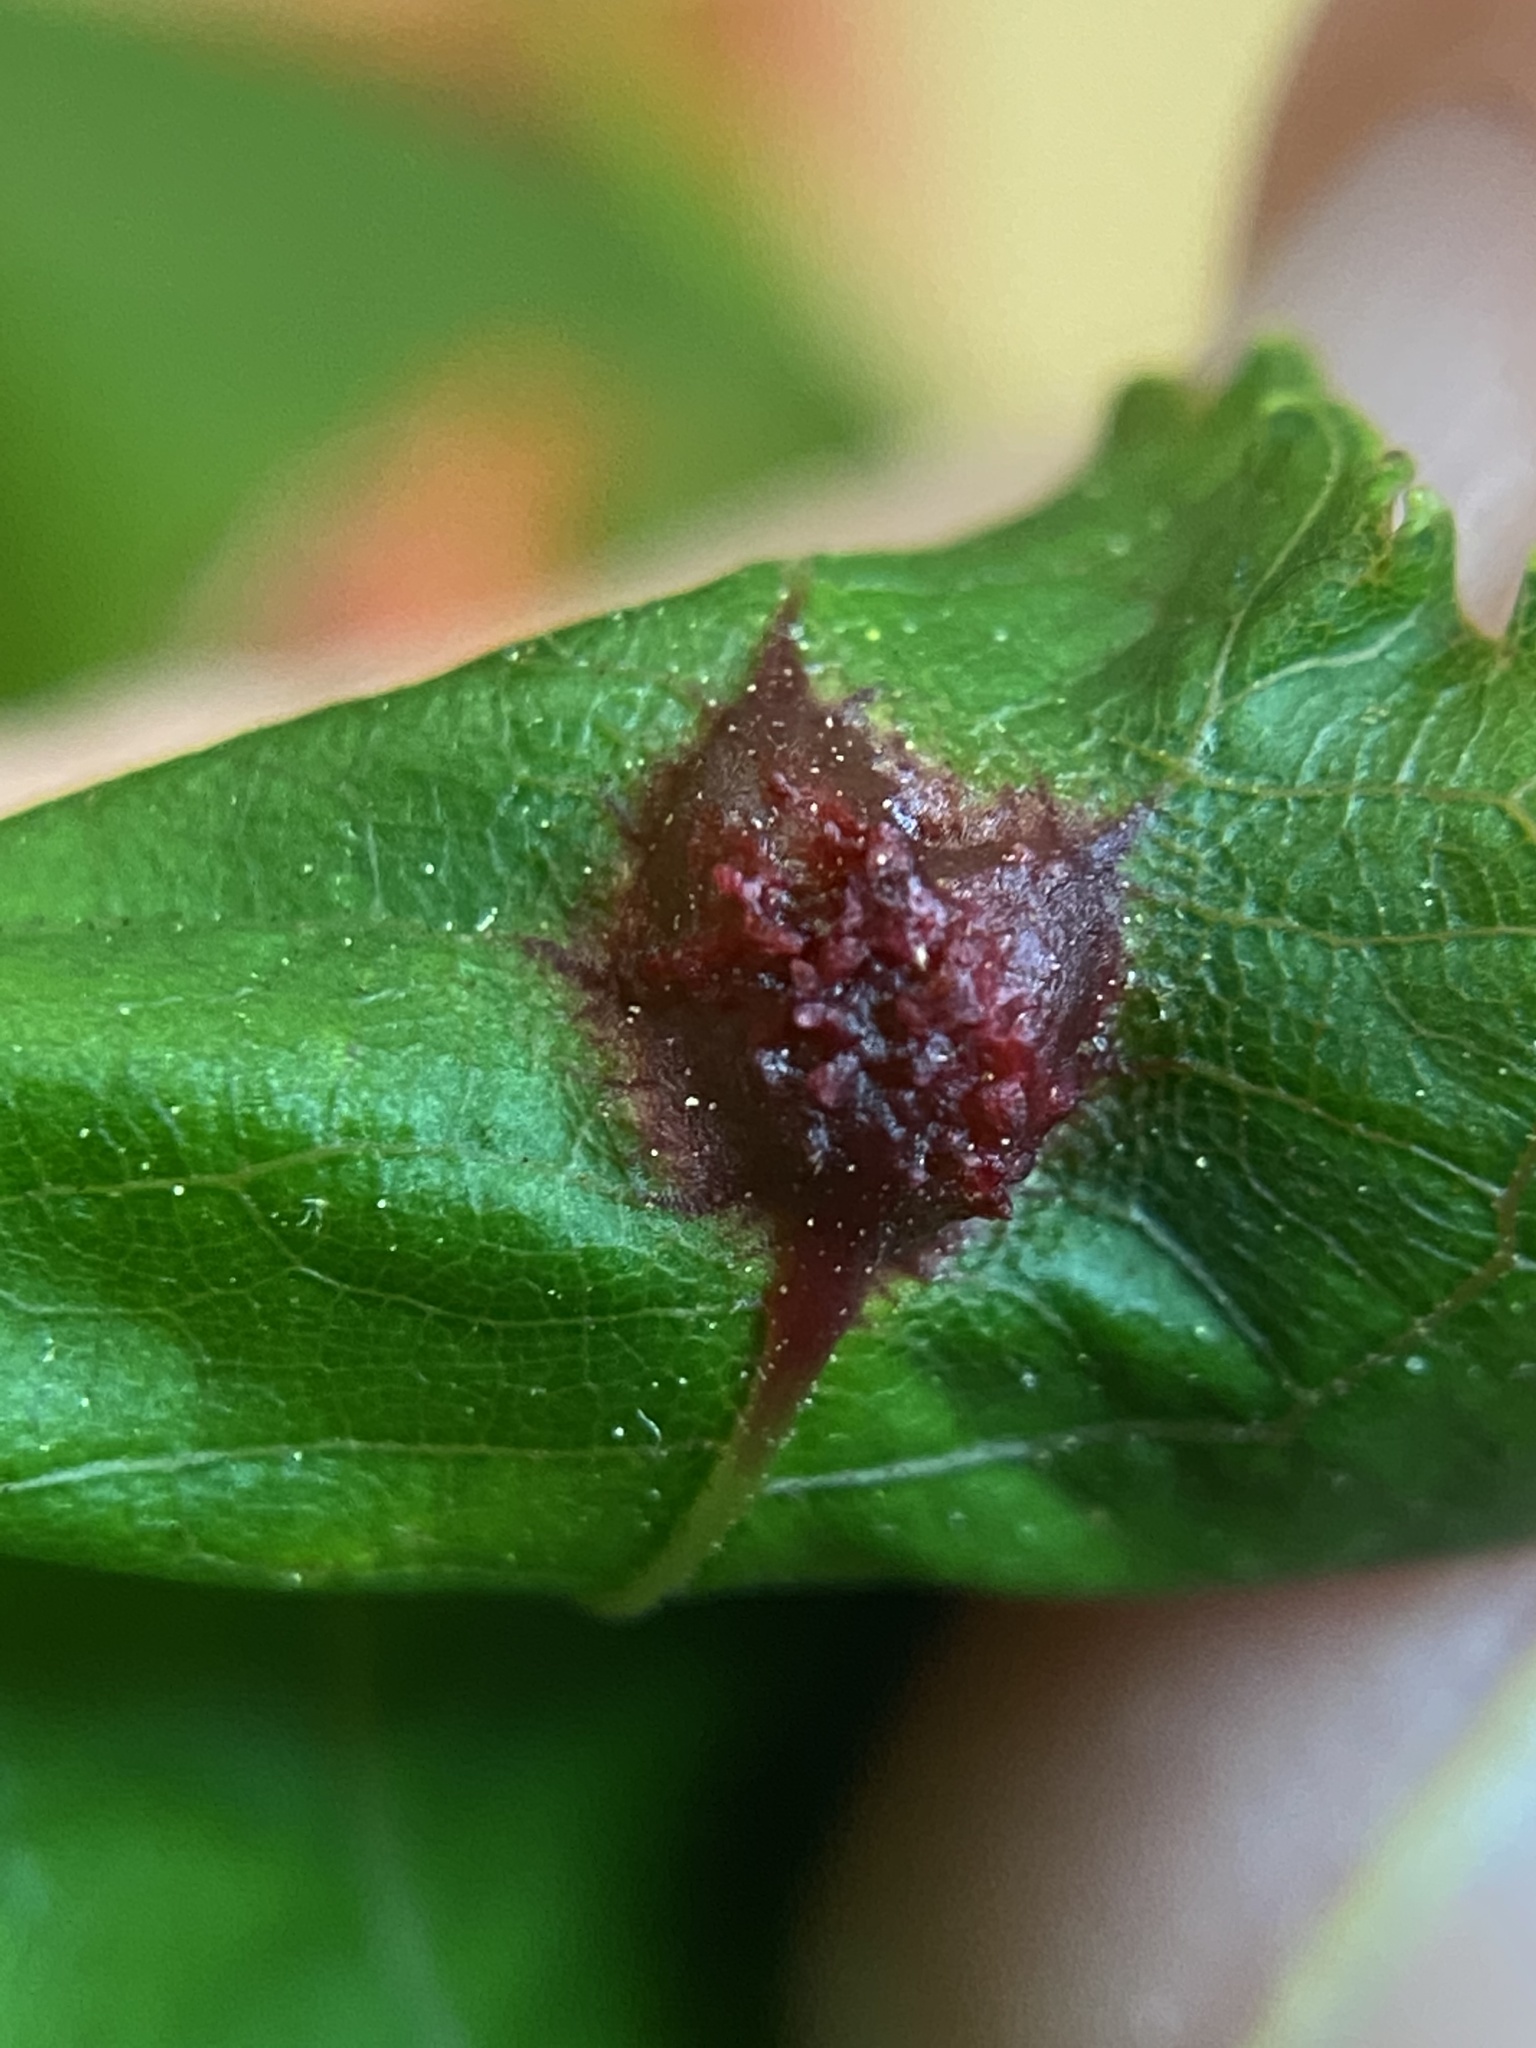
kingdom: Animalia
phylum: Arthropoda
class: Insecta
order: Hemiptera
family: Phylloxeridae
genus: Phylloxera
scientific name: Phylloxera spinosa
